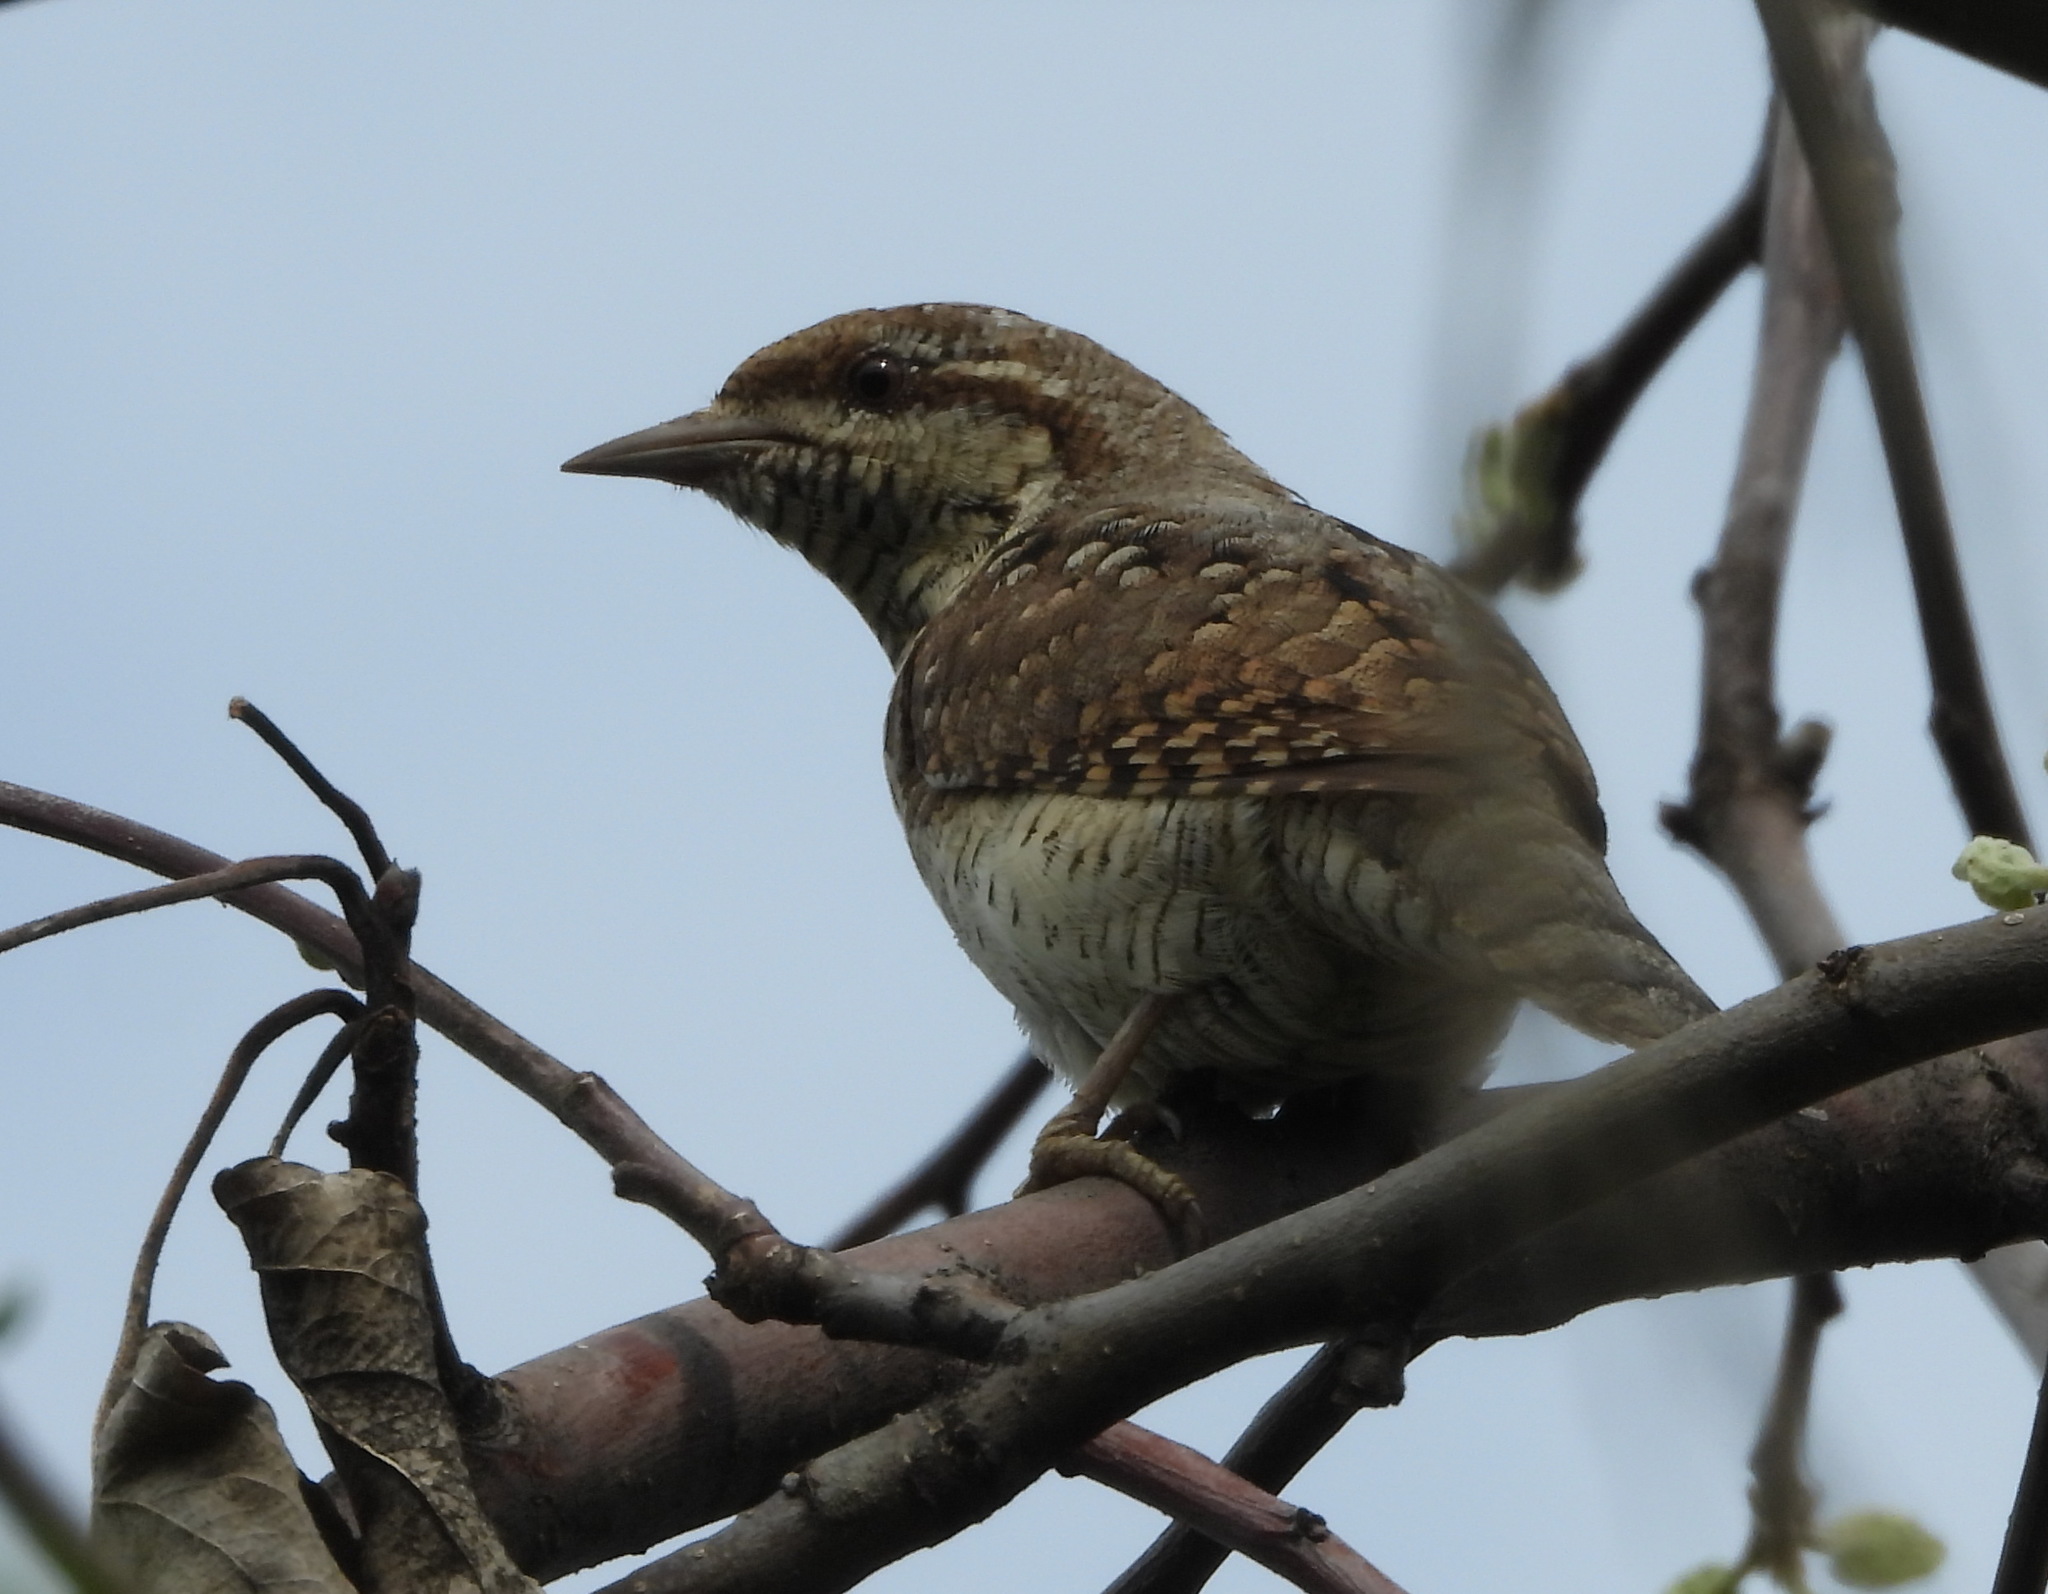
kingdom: Animalia
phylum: Chordata
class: Aves
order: Piciformes
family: Picidae
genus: Jynx
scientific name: Jynx torquilla
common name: Eurasian wryneck
